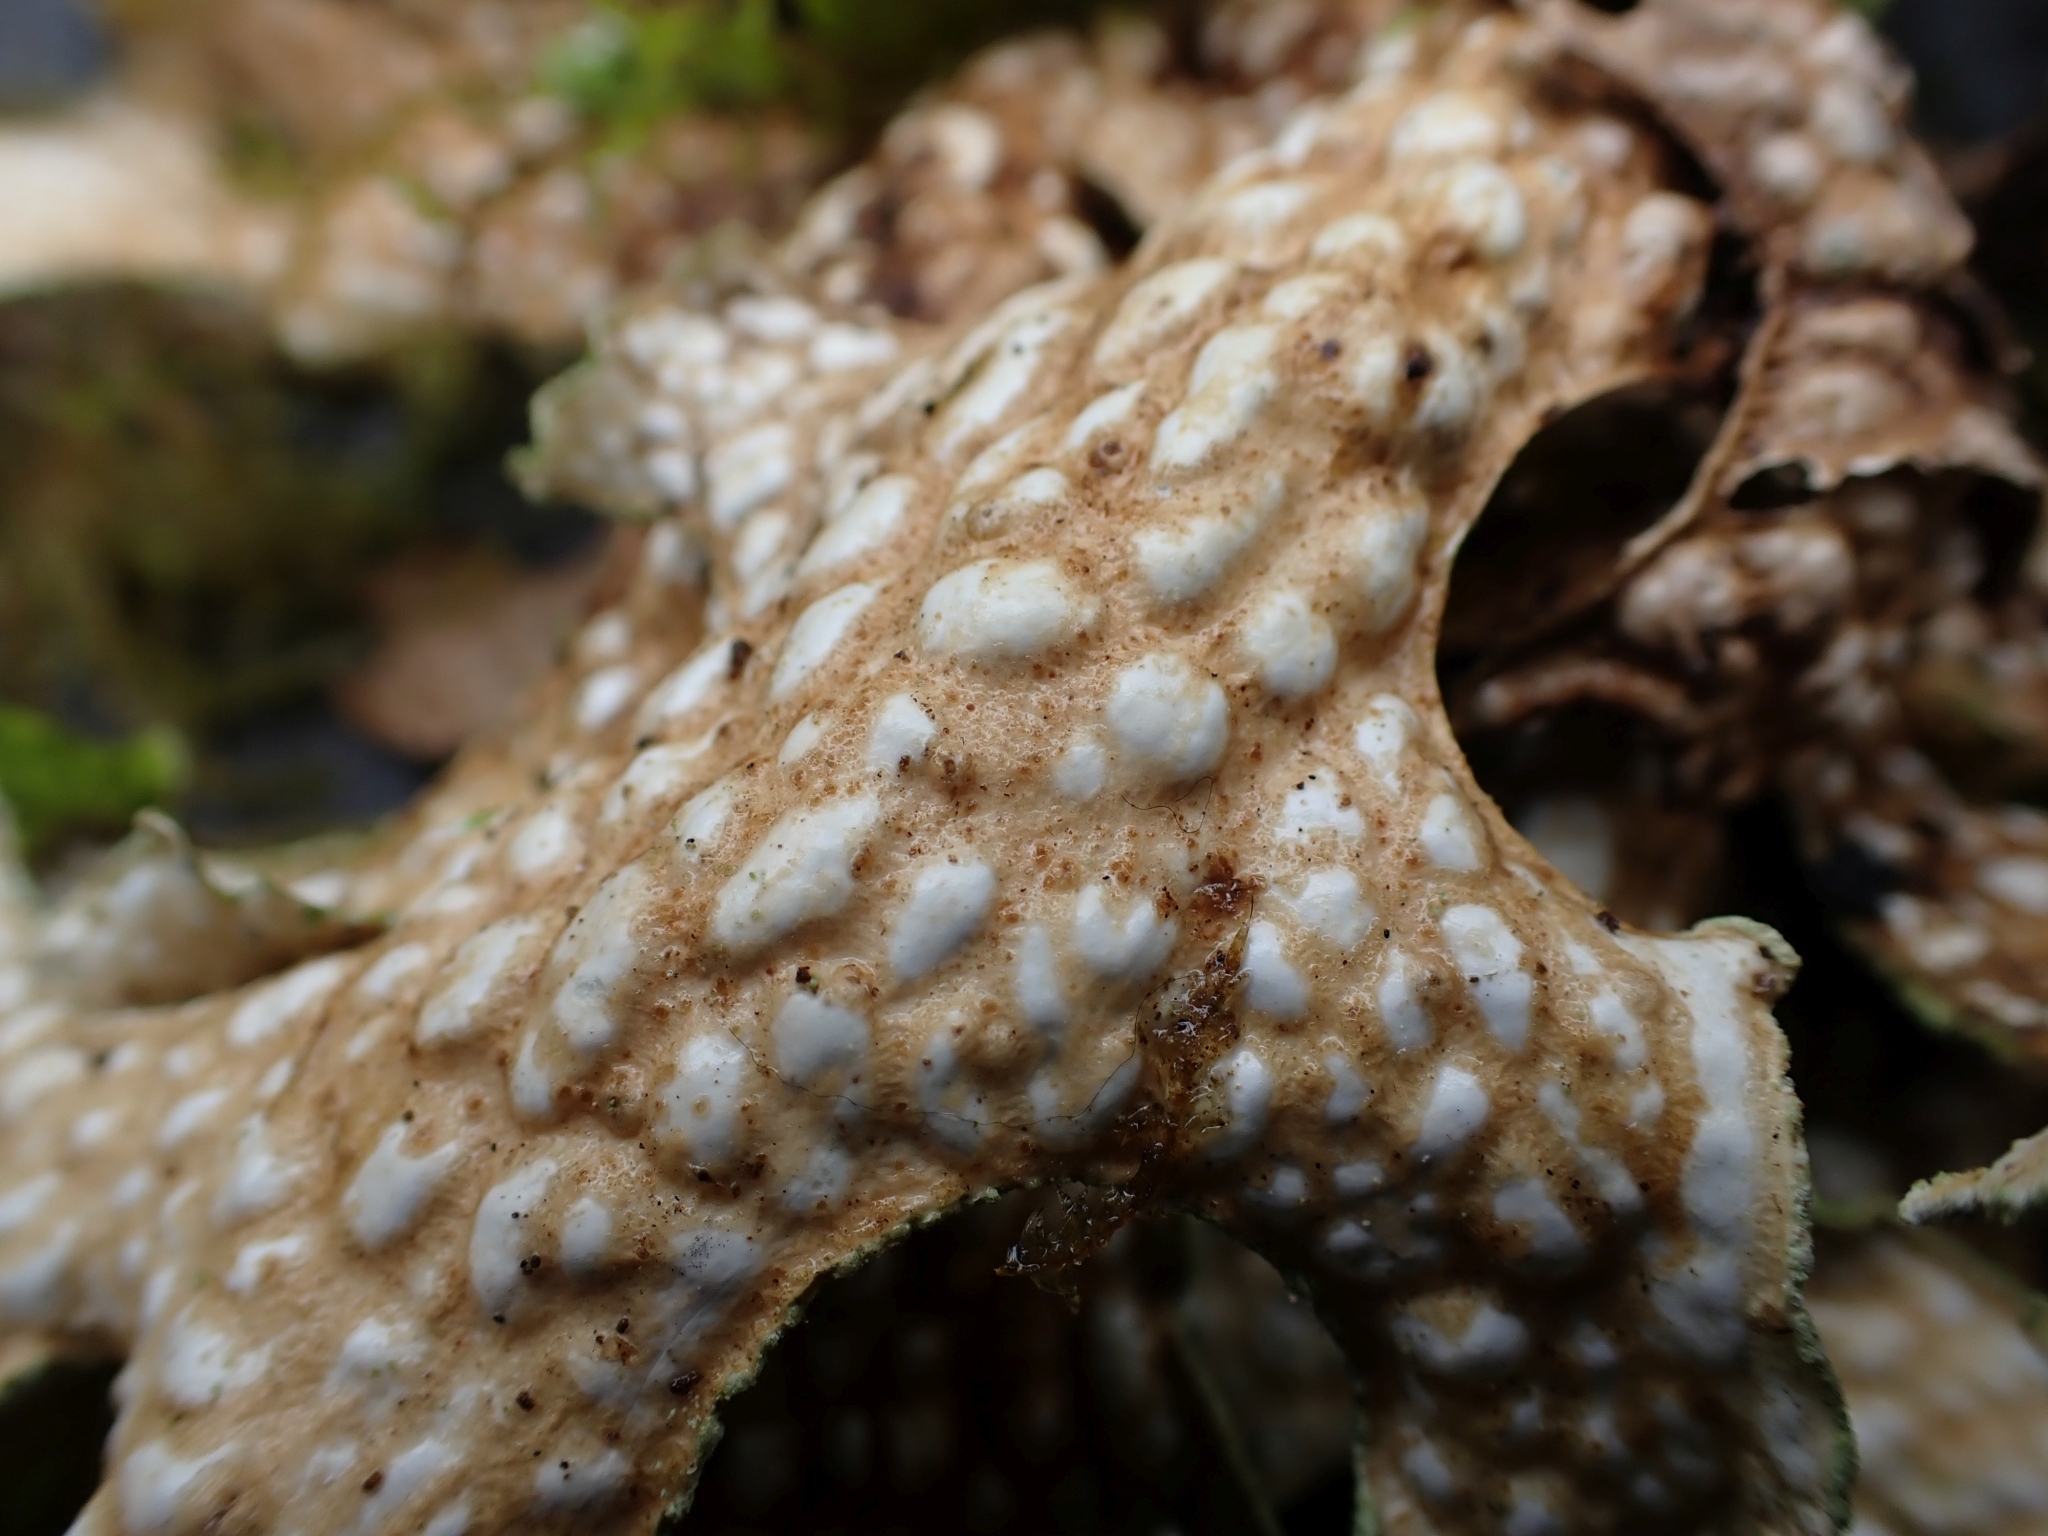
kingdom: Fungi
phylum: Ascomycota
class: Lecanoromycetes
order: Peltigerales
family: Lobariaceae
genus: Lobaria
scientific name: Lobaria pulmonaria
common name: Lungwort
